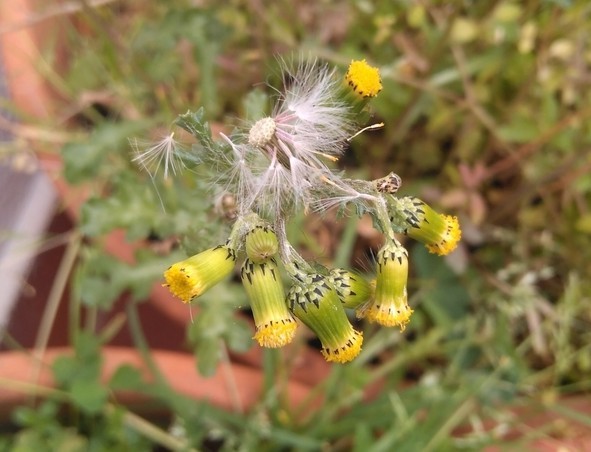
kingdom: Plantae
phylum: Tracheophyta
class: Magnoliopsida
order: Asterales
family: Asteraceae
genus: Senecio
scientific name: Senecio vulgaris
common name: Old-man-in-the-spring
